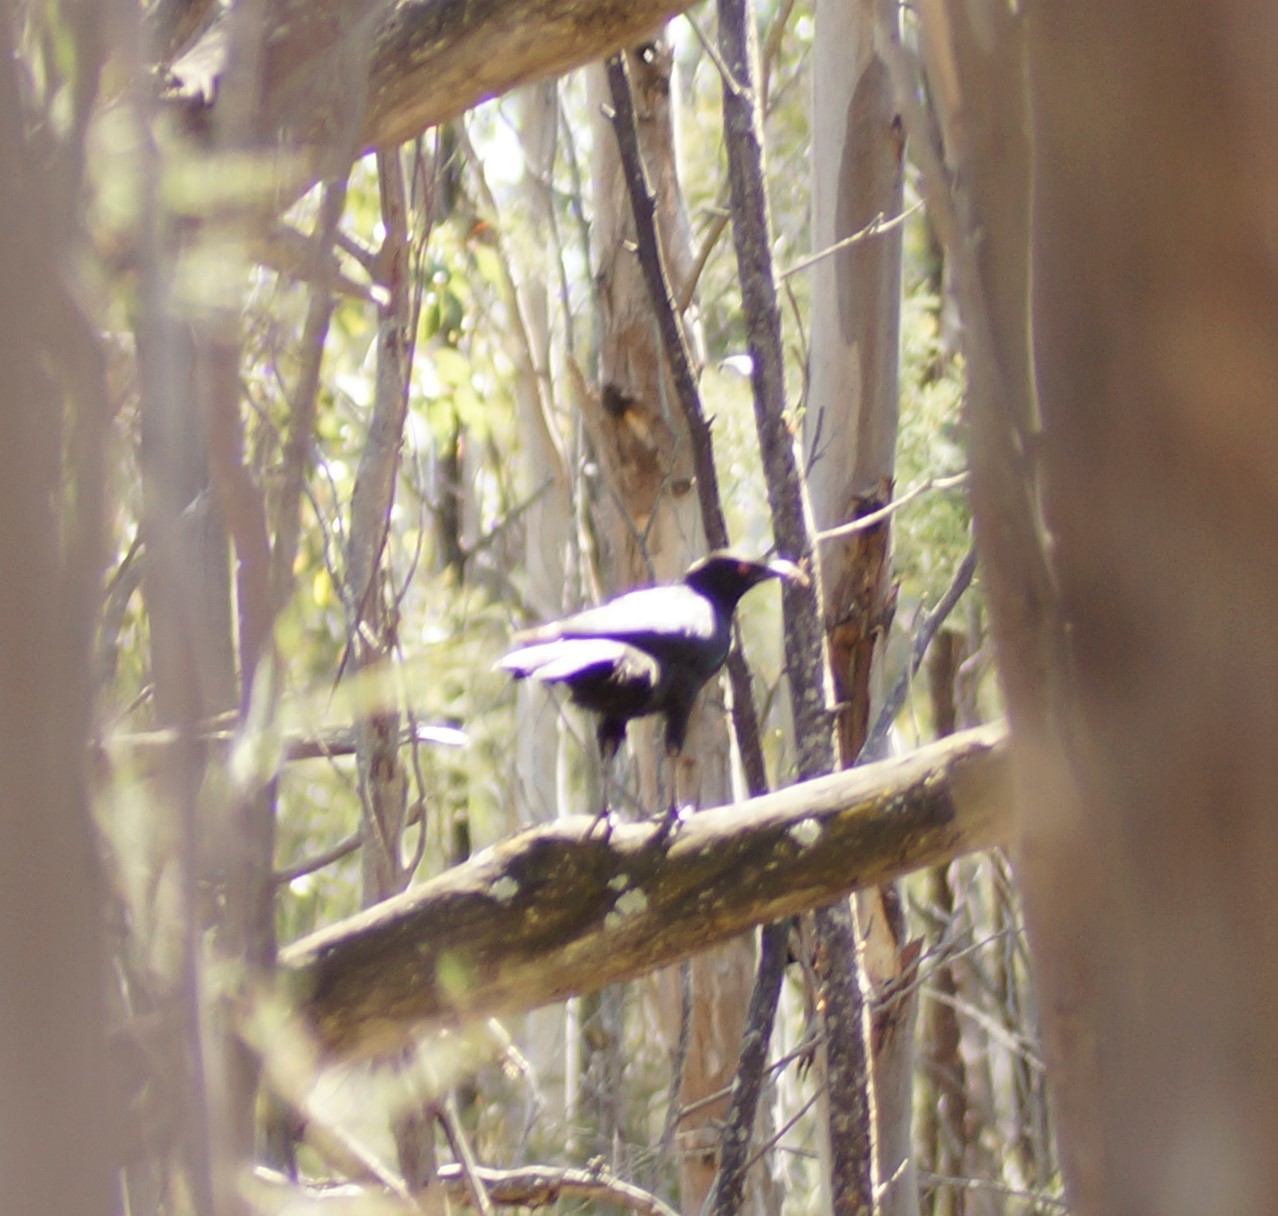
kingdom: Animalia
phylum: Chordata
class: Aves
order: Passeriformes
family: Corcoracidae
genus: Corcorax
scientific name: Corcorax melanoramphos
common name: White-winged chough
